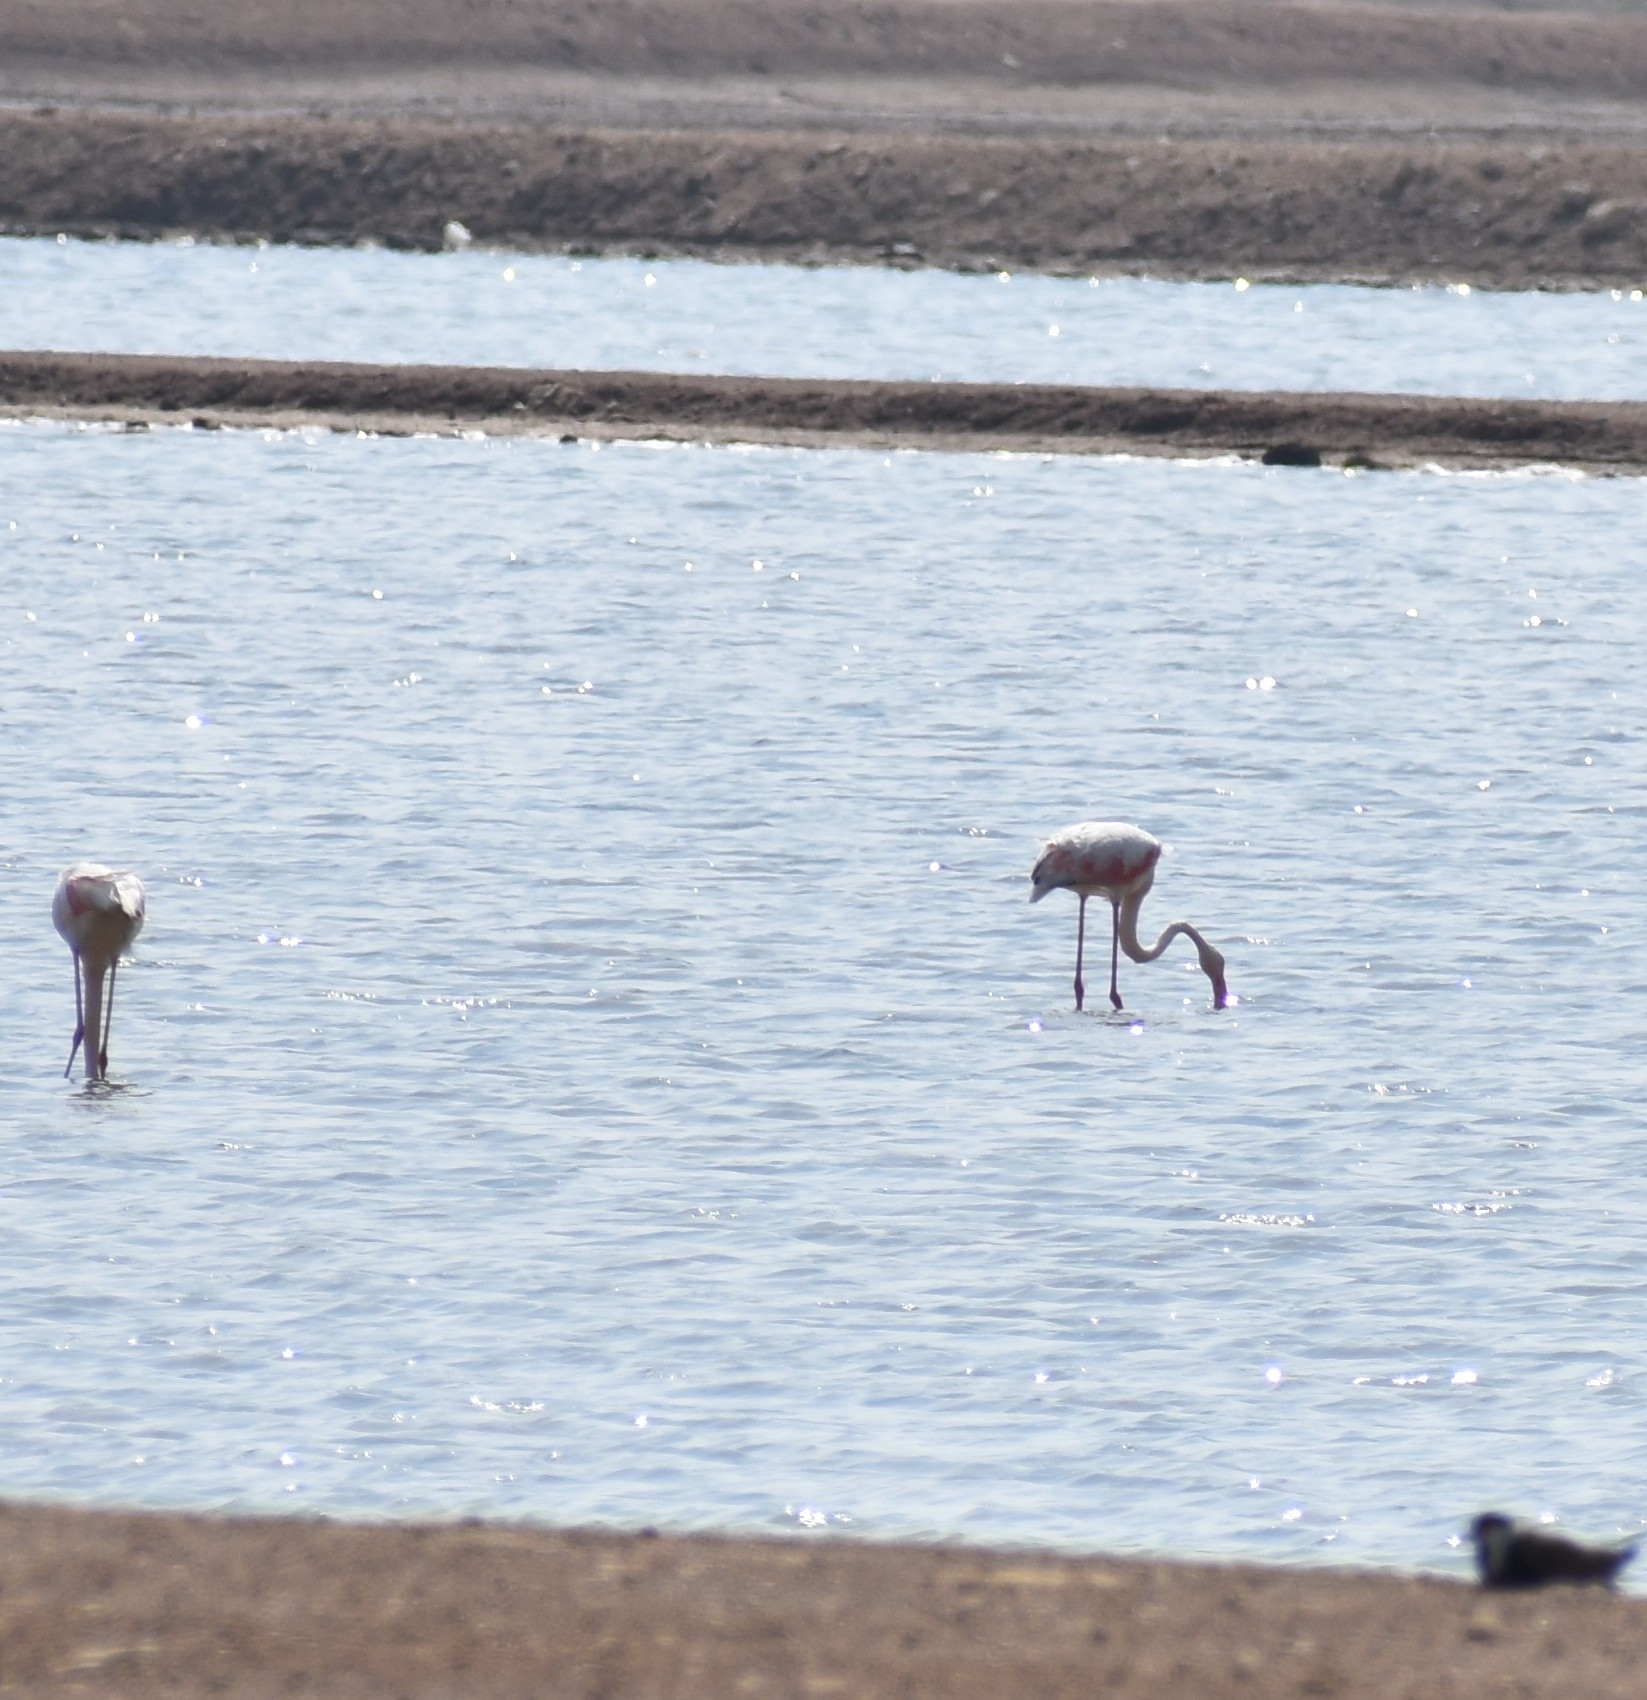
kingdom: Animalia
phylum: Chordata
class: Aves
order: Phoenicopteriformes
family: Phoenicopteridae
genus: Phoenicopterus
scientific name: Phoenicopterus roseus
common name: Greater flamingo
